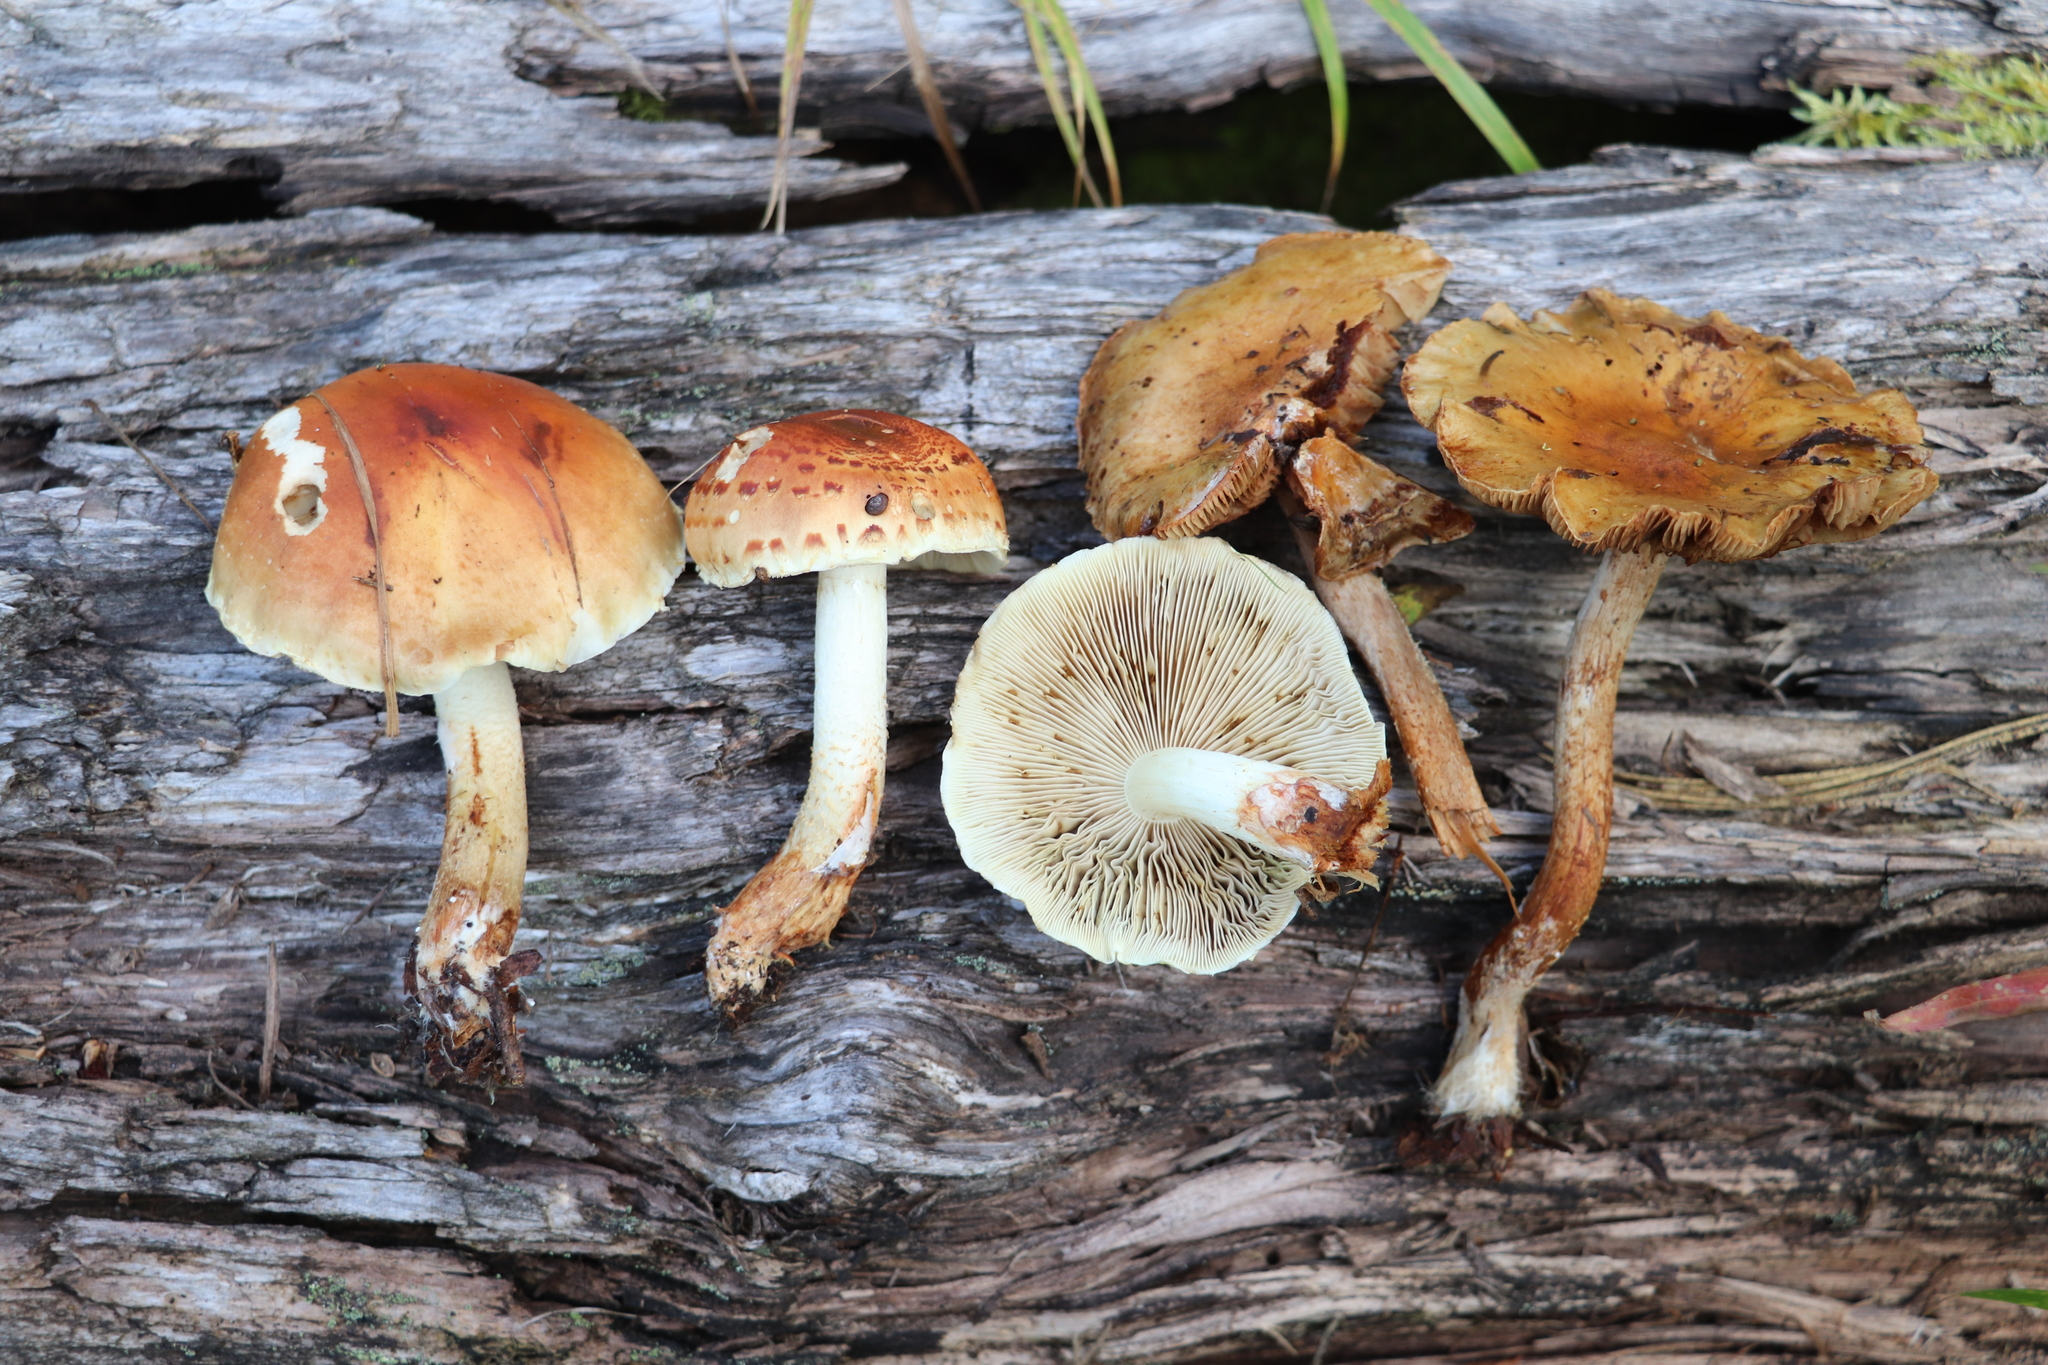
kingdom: Fungi
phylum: Basidiomycota
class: Agaricomycetes
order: Agaricales
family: Strophariaceae
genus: Pholiota
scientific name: Pholiota lubrica
